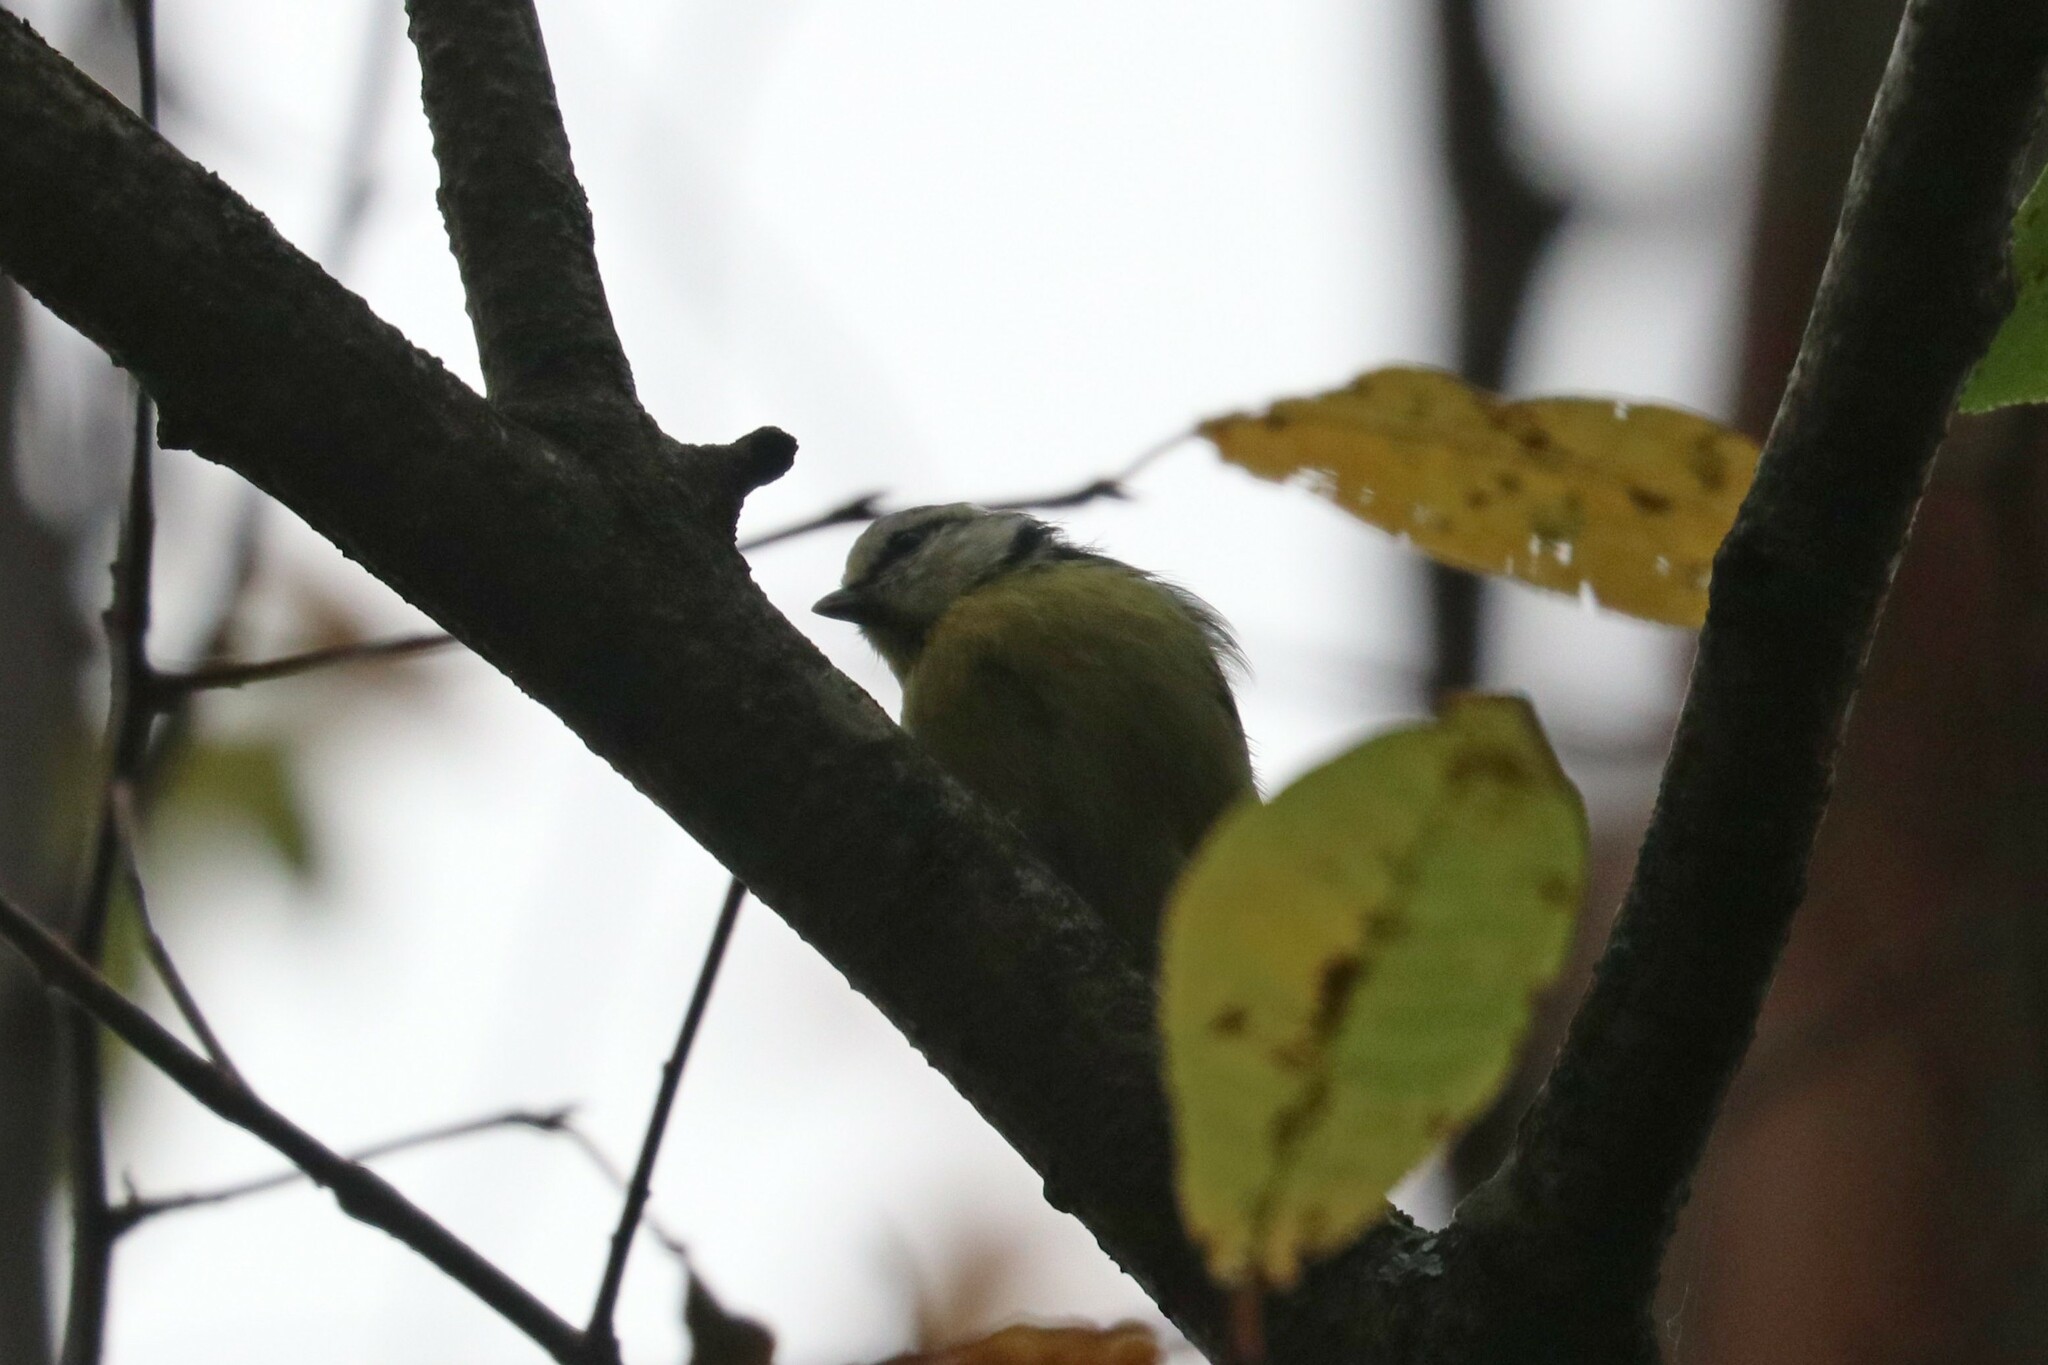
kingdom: Animalia
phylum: Chordata
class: Aves
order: Passeriformes
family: Paridae
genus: Cyanistes
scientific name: Cyanistes caeruleus
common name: Eurasian blue tit
